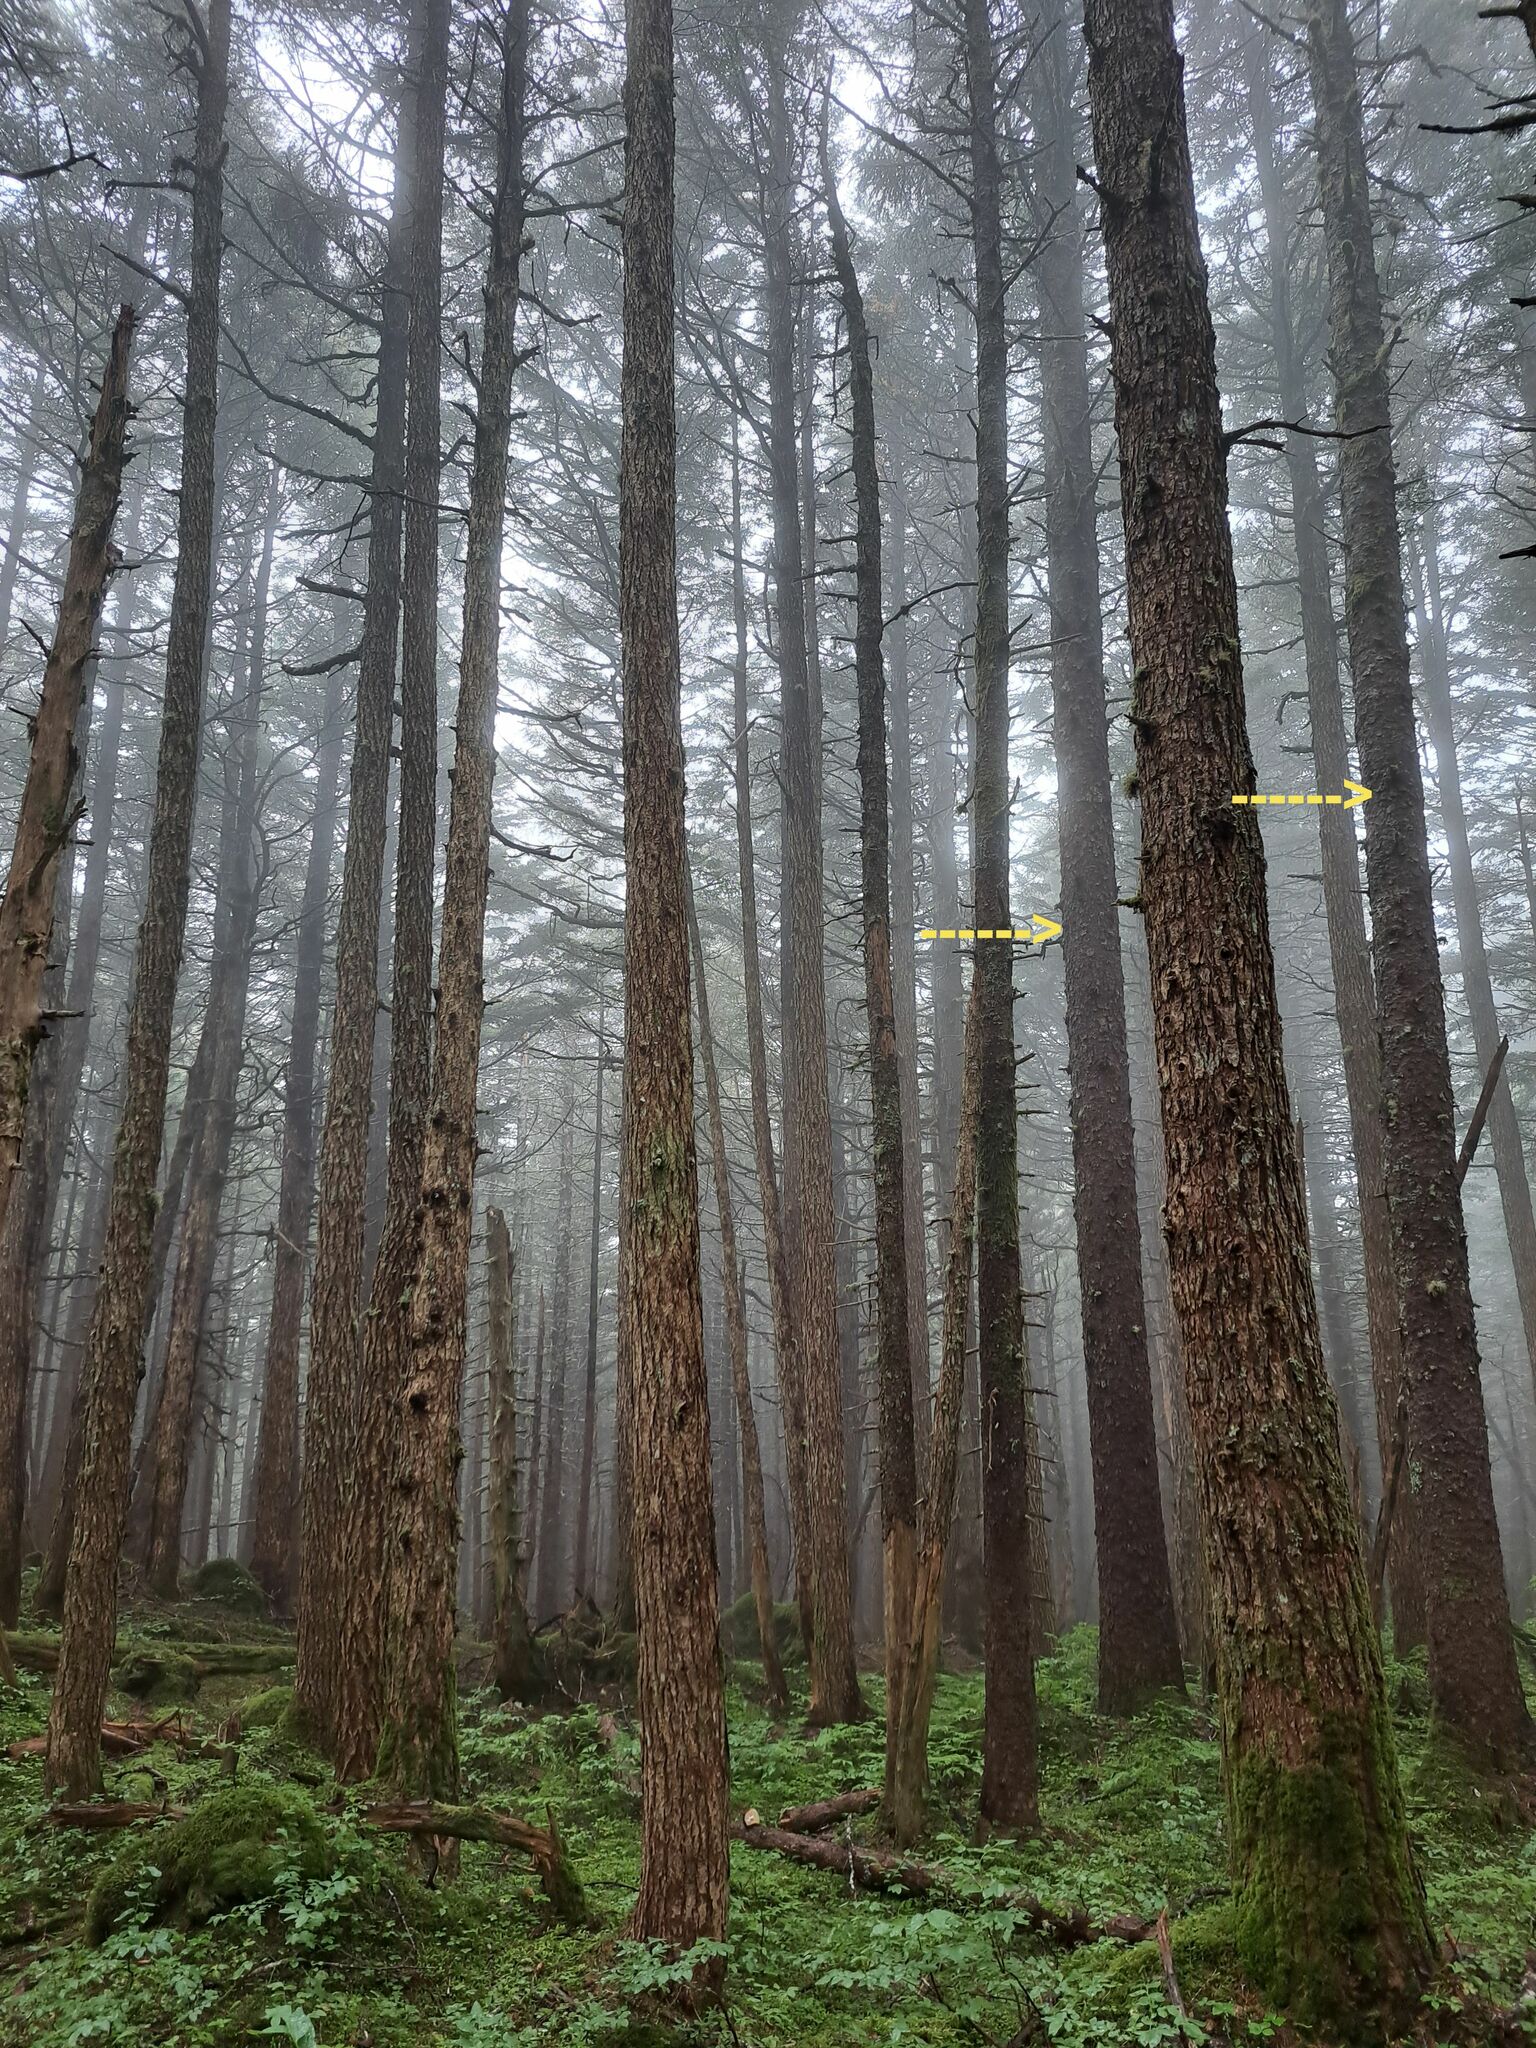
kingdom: Plantae
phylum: Tracheophyta
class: Pinopsida
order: Pinales
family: Pinaceae
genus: Picea
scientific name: Picea sitchensis
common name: Sitka spruce
